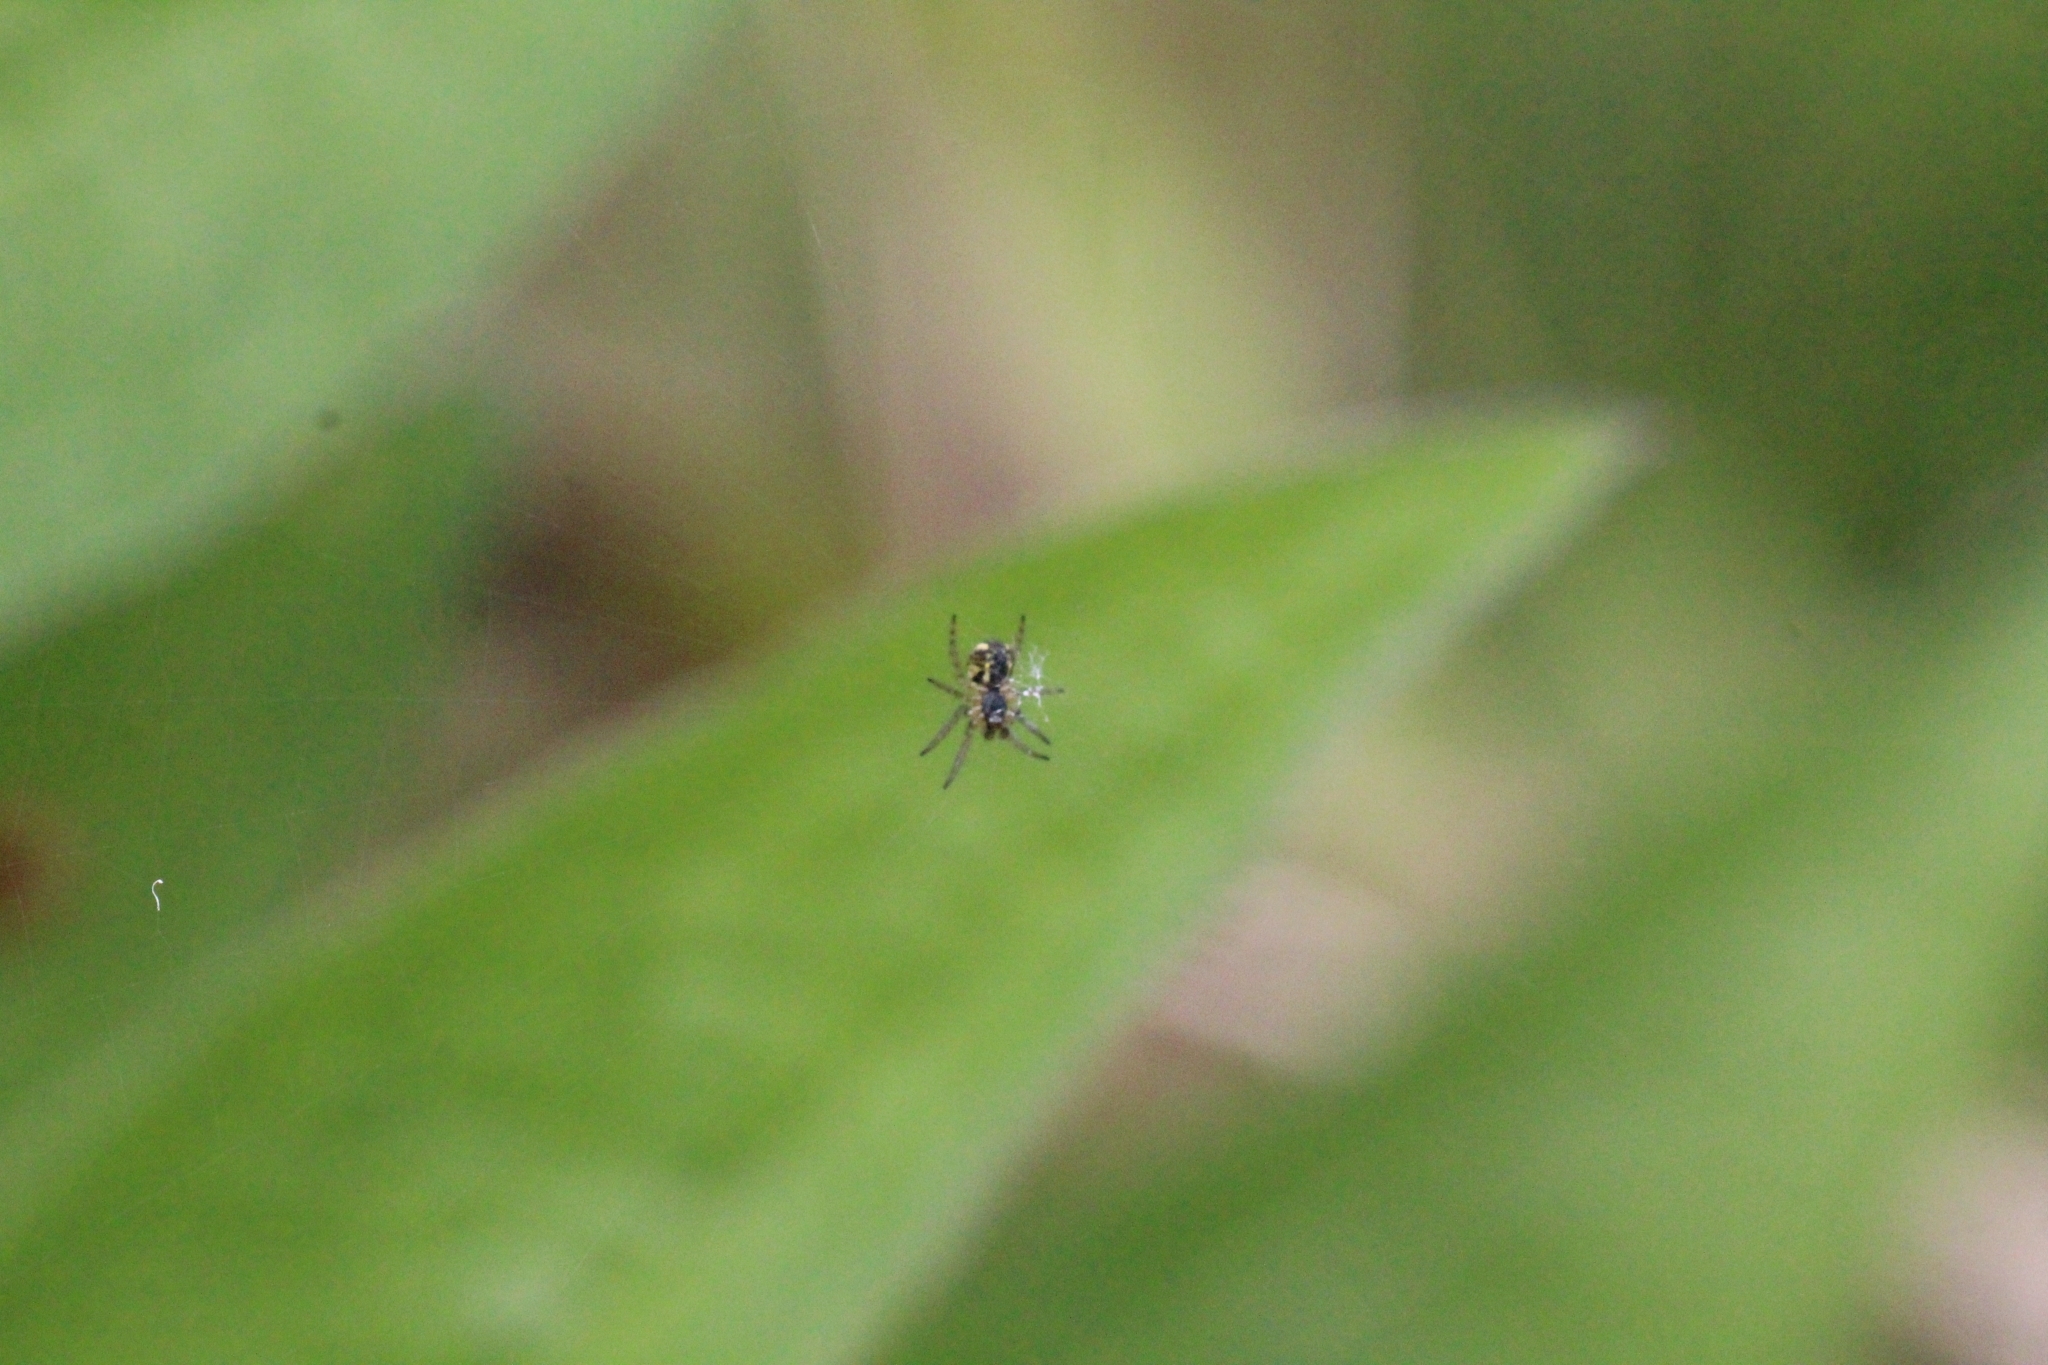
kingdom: Animalia
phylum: Arthropoda
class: Arachnida
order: Araneae
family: Araneidae
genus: Mangora
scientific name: Mangora acalypha
